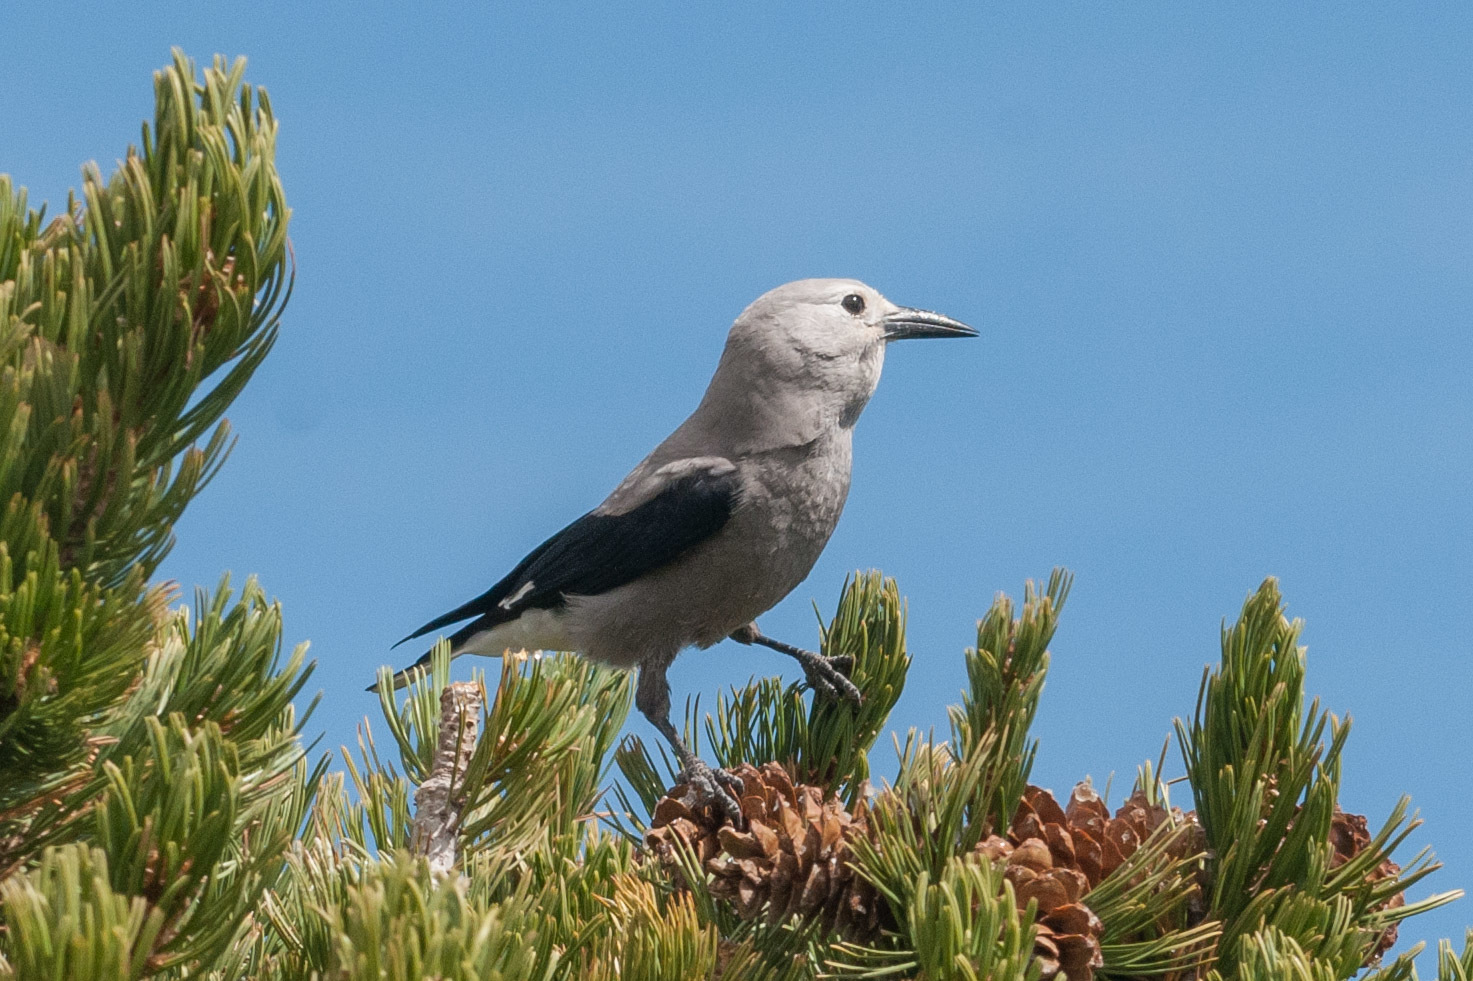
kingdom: Animalia
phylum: Chordata
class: Aves
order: Passeriformes
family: Corvidae
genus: Nucifraga
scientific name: Nucifraga columbiana
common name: Clark's nutcracker
